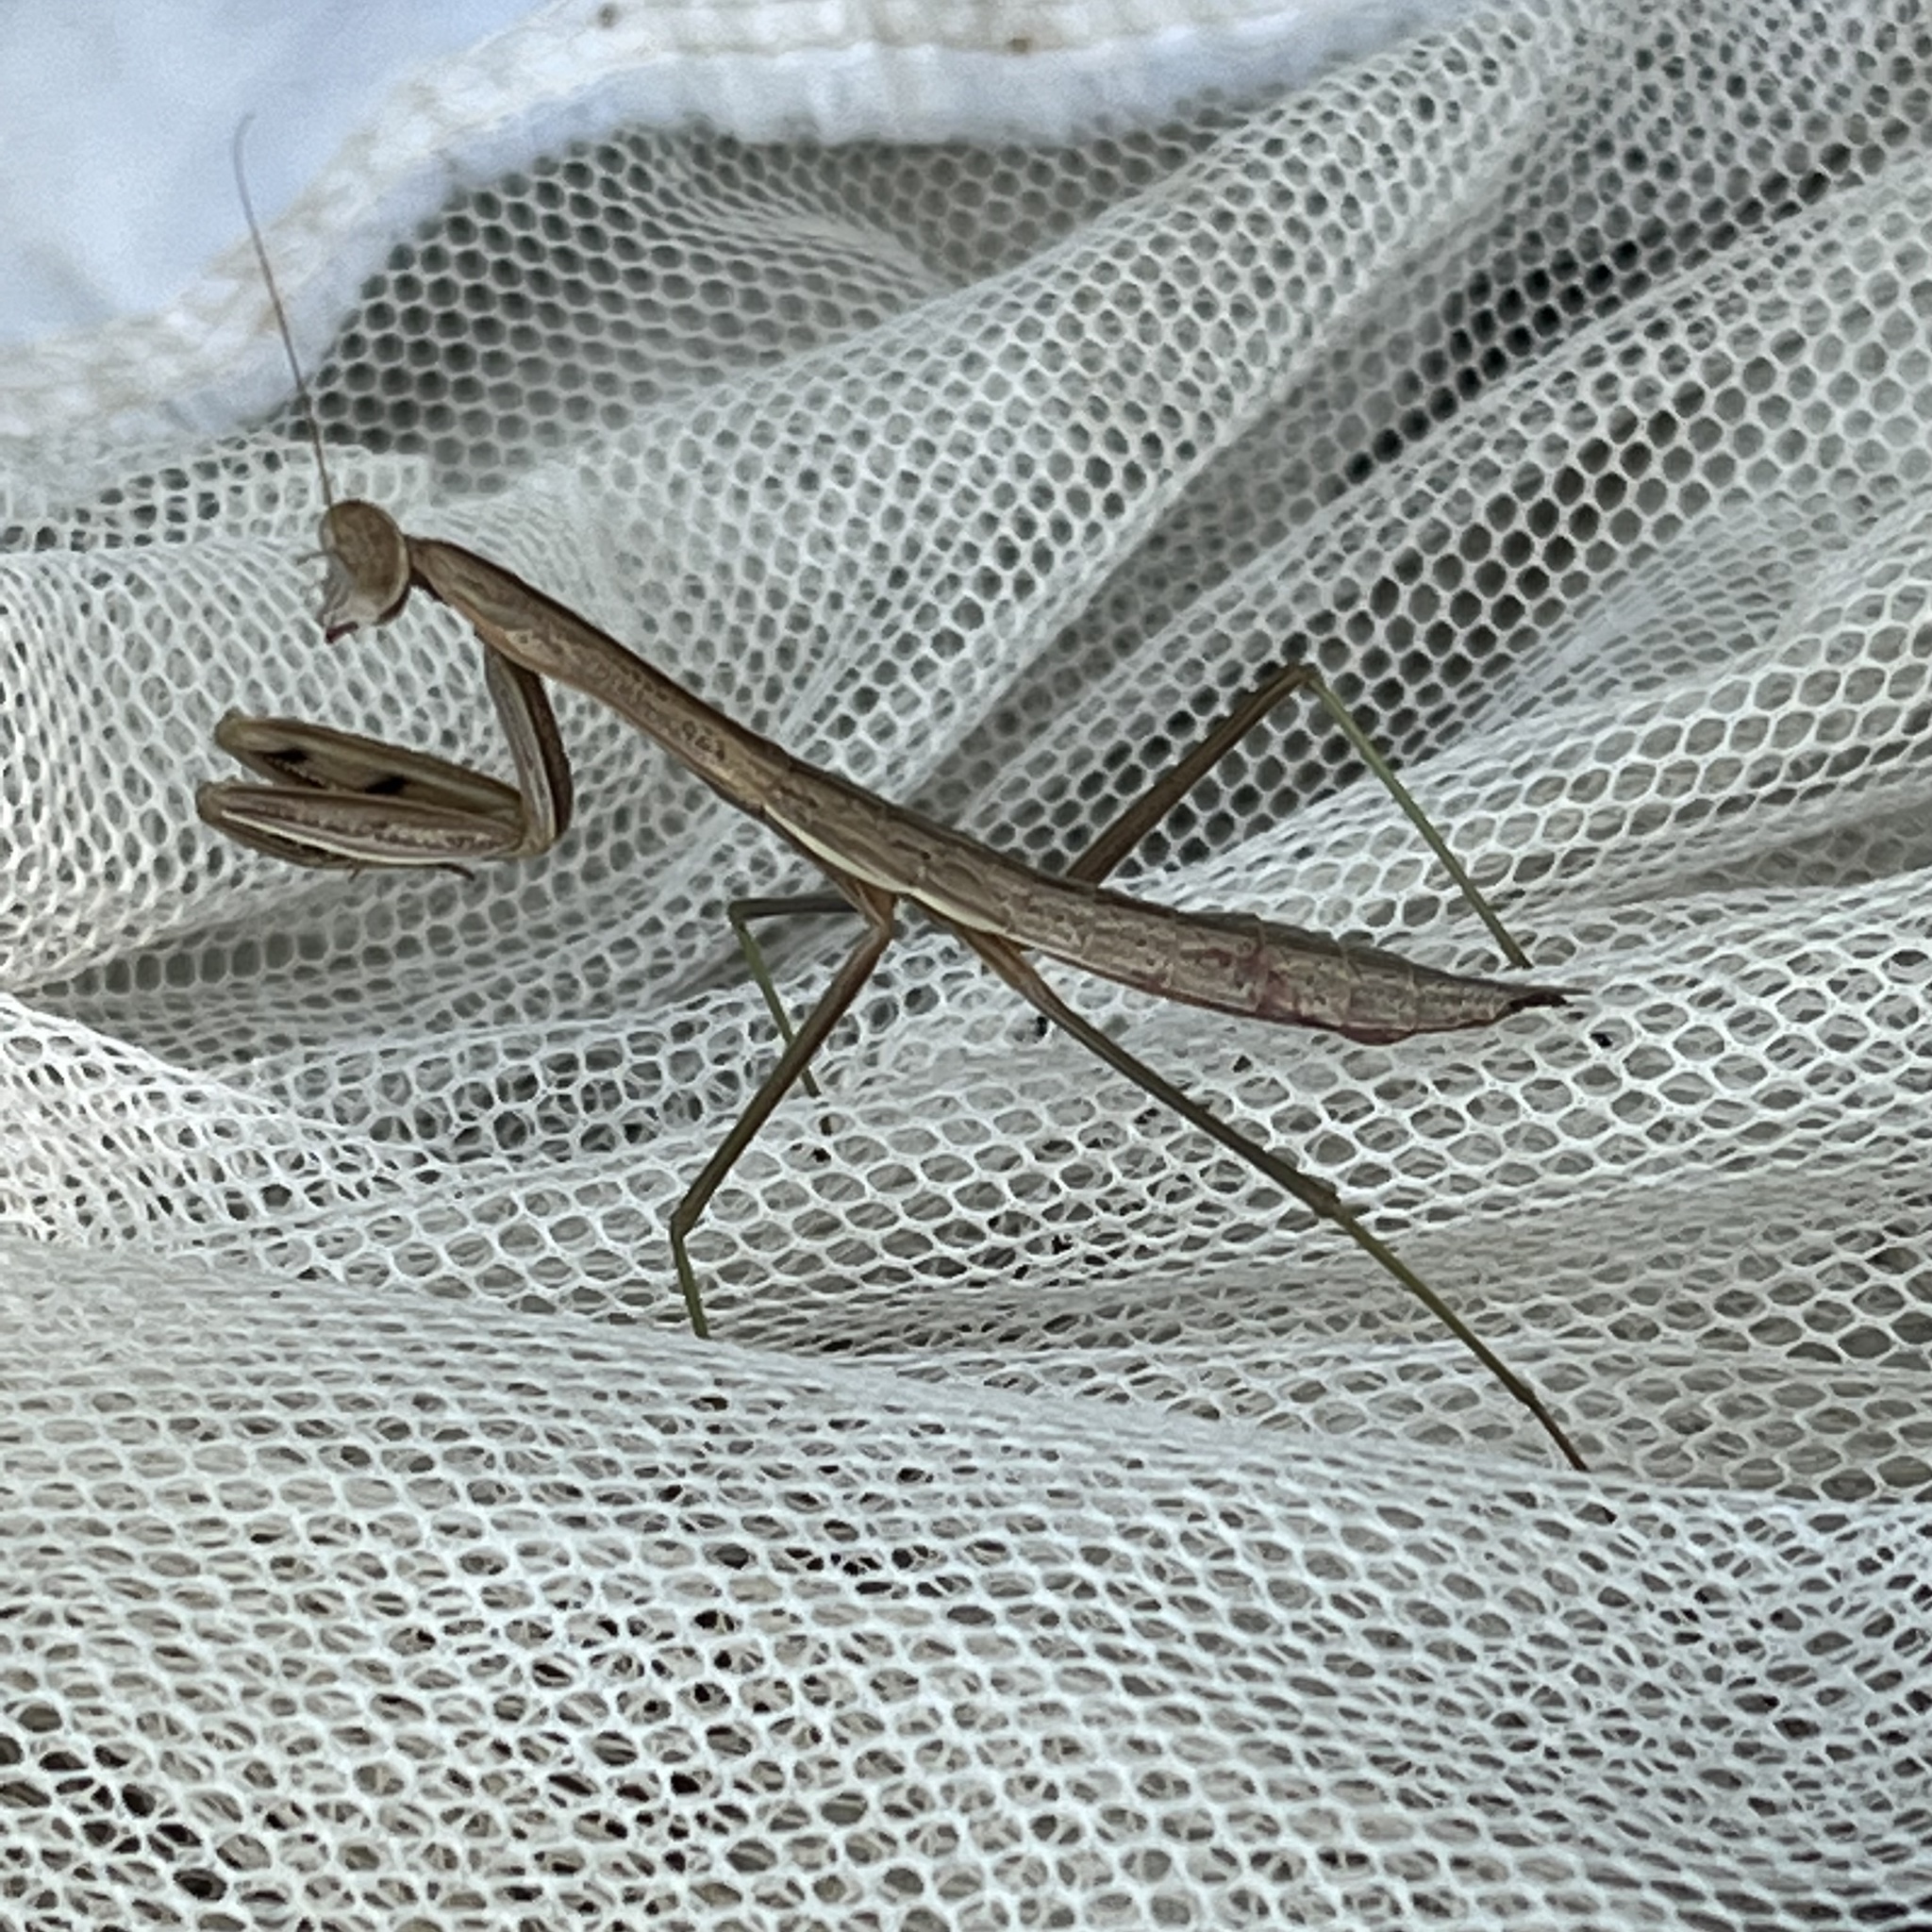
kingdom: Animalia
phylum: Arthropoda
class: Insecta
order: Mantodea
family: Mantidae
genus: Tenodera
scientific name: Tenodera sinensis
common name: Chinese mantis
